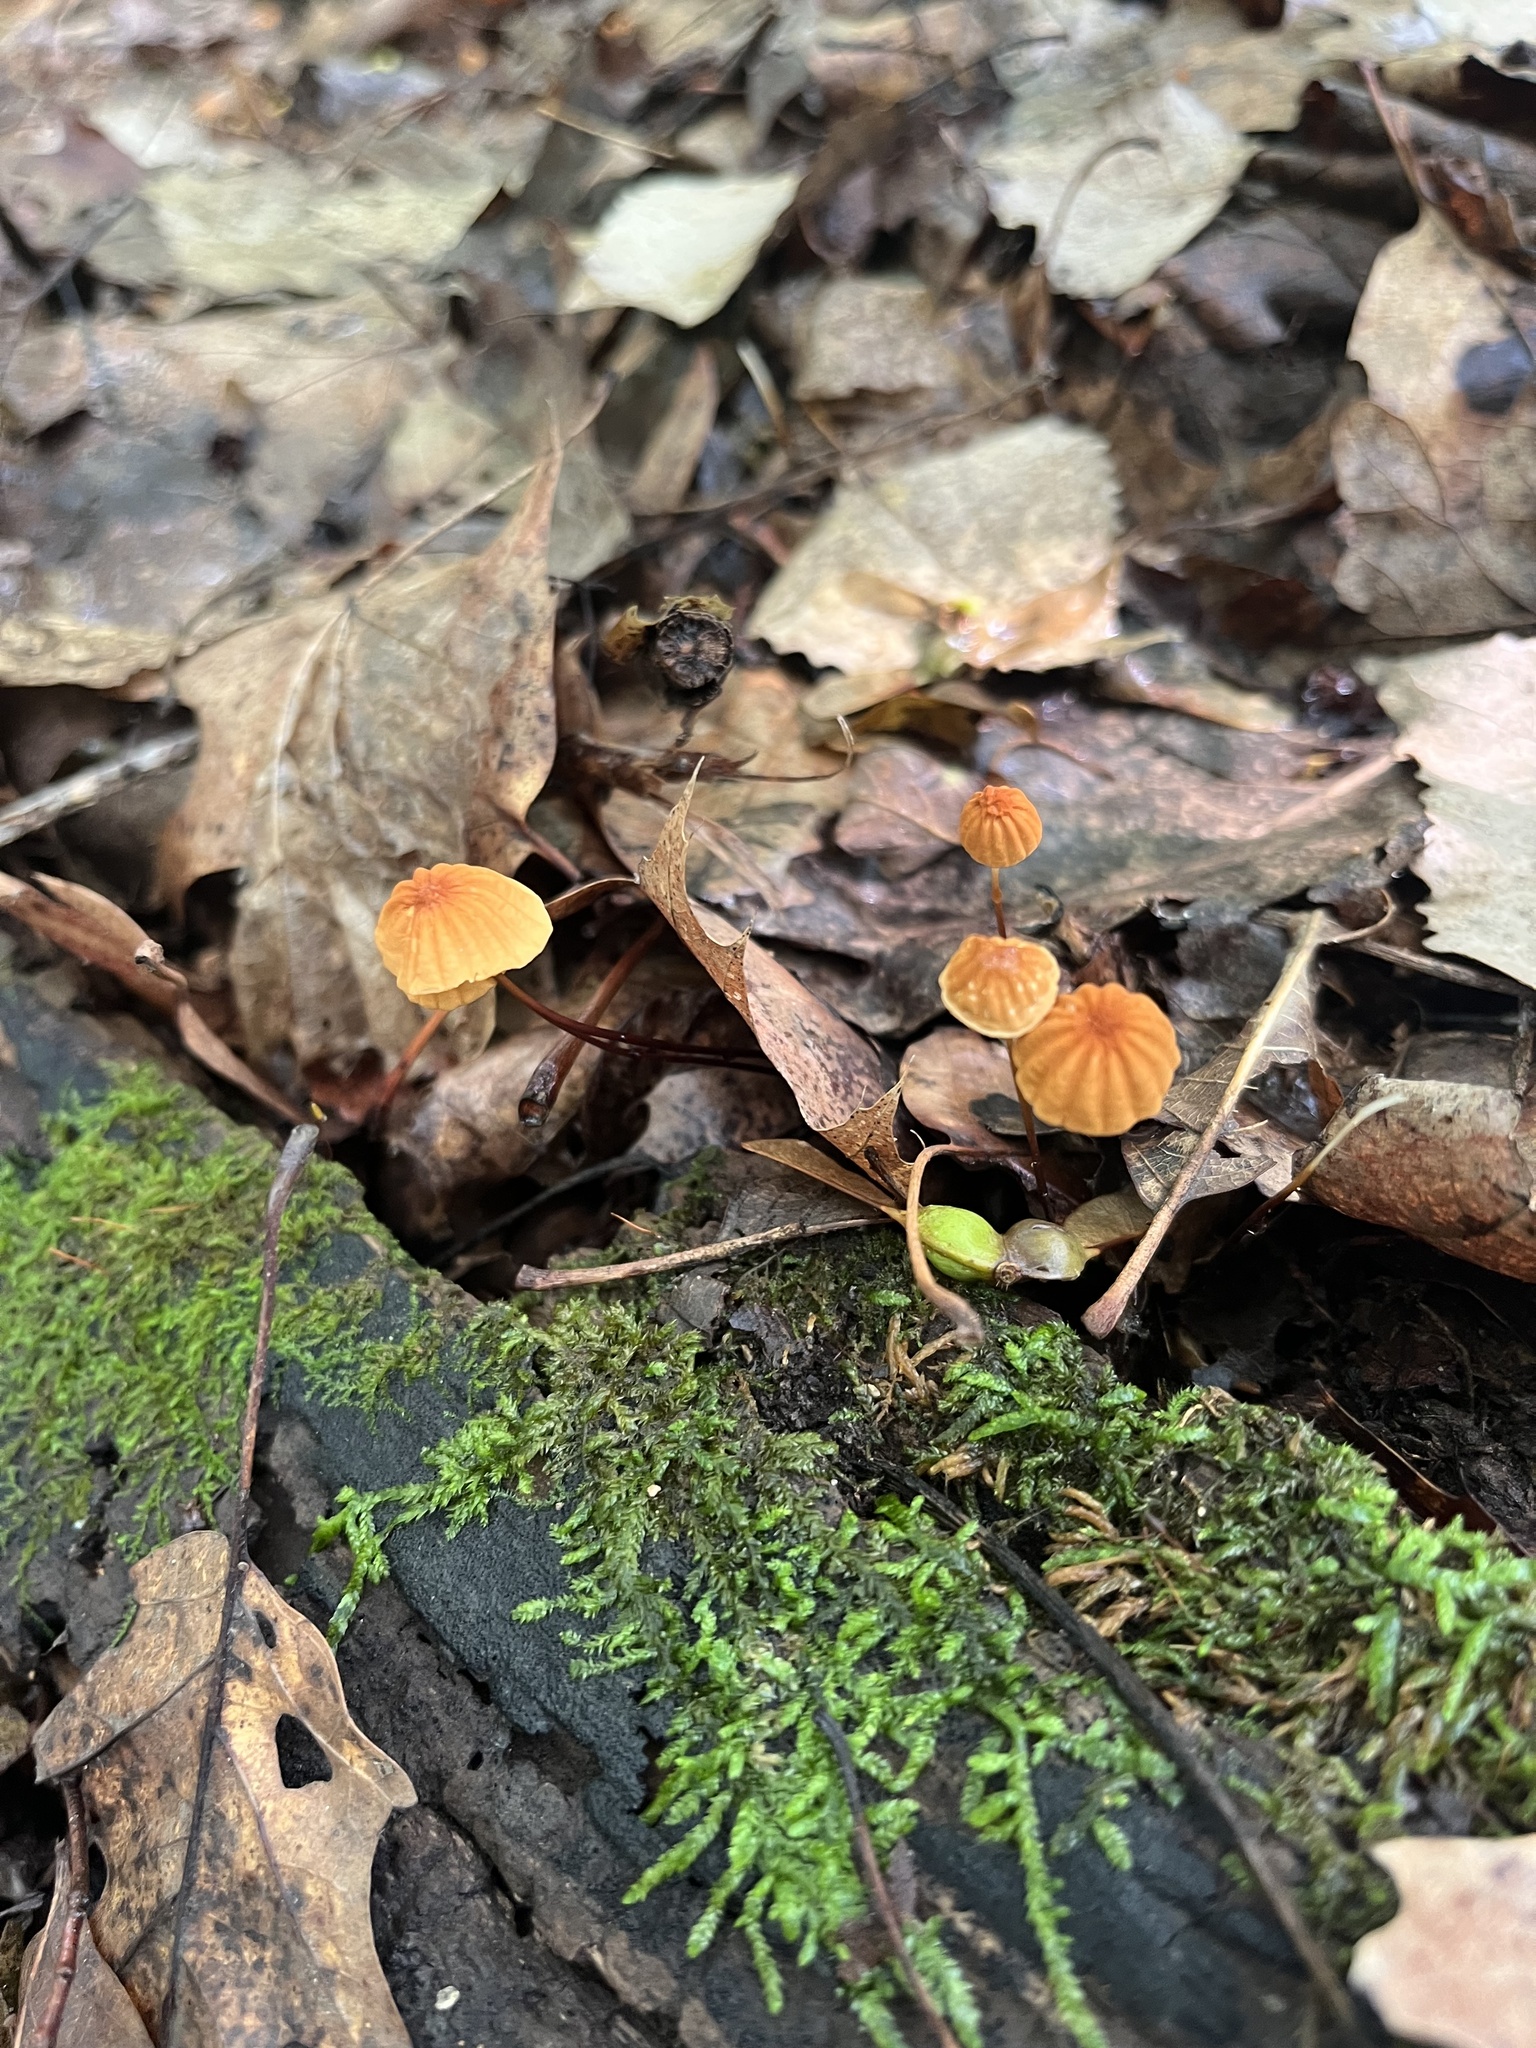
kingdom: Fungi
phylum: Basidiomycota
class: Agaricomycetes
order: Agaricales
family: Marasmiaceae
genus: Marasmius
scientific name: Marasmius siccus
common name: Orange pinwheel
